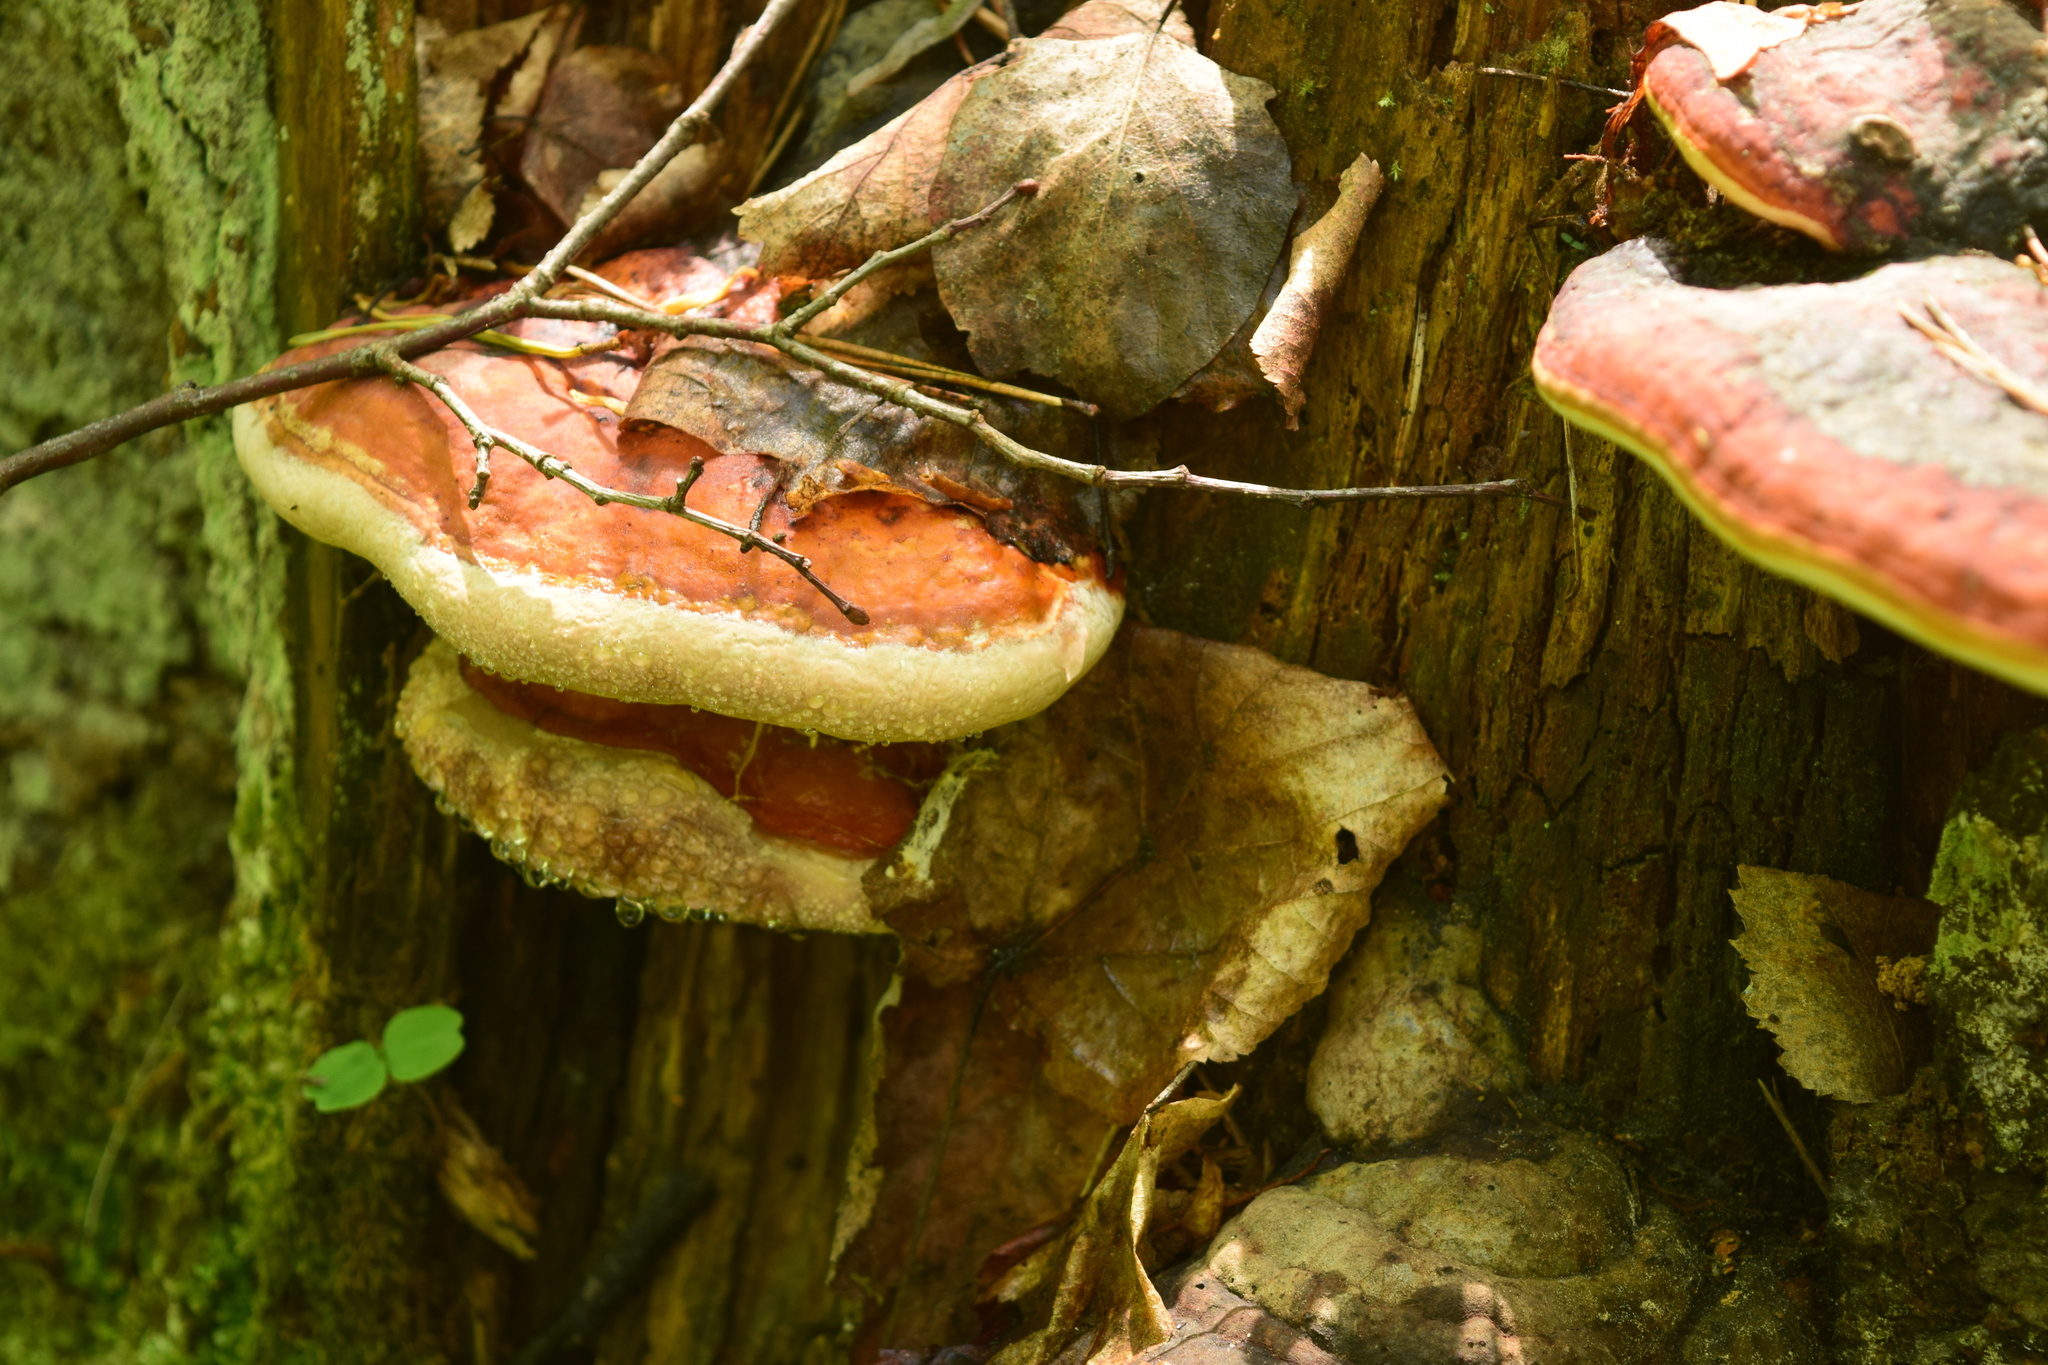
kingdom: Fungi
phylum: Basidiomycota
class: Agaricomycetes
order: Polyporales
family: Fomitopsidaceae
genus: Fomitopsis
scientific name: Fomitopsis pinicola
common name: Red-belted bracket
